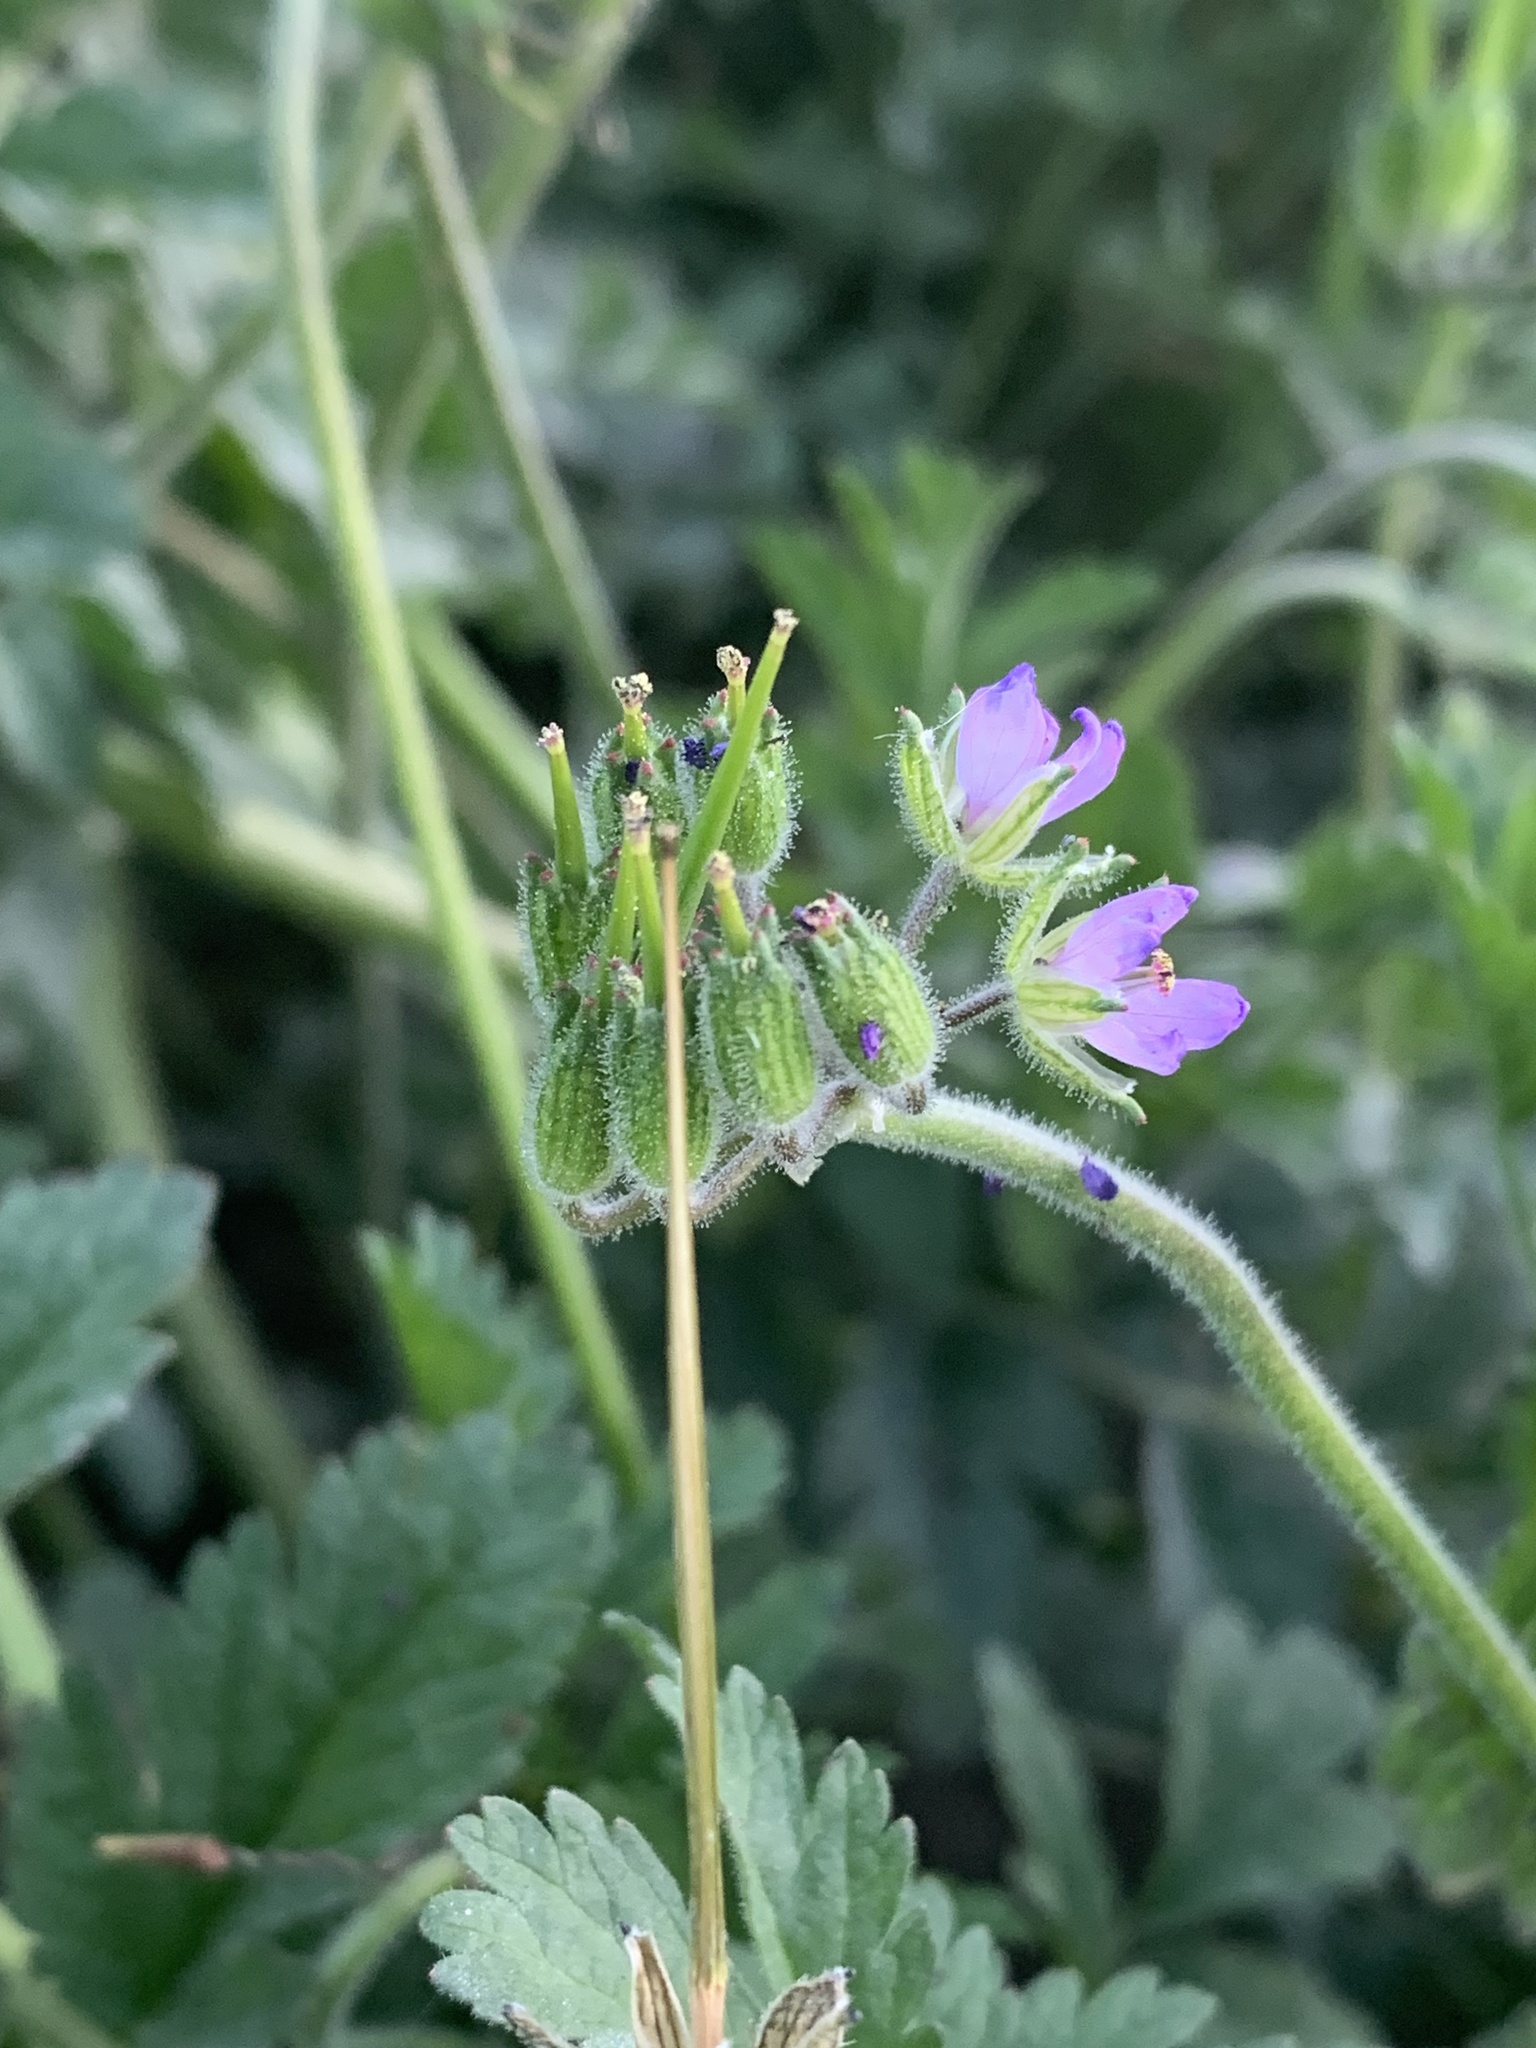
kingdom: Plantae
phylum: Tracheophyta
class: Magnoliopsida
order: Geraniales
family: Geraniaceae
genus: Erodium
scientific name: Erodium moschatum
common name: Musk stork's-bill
